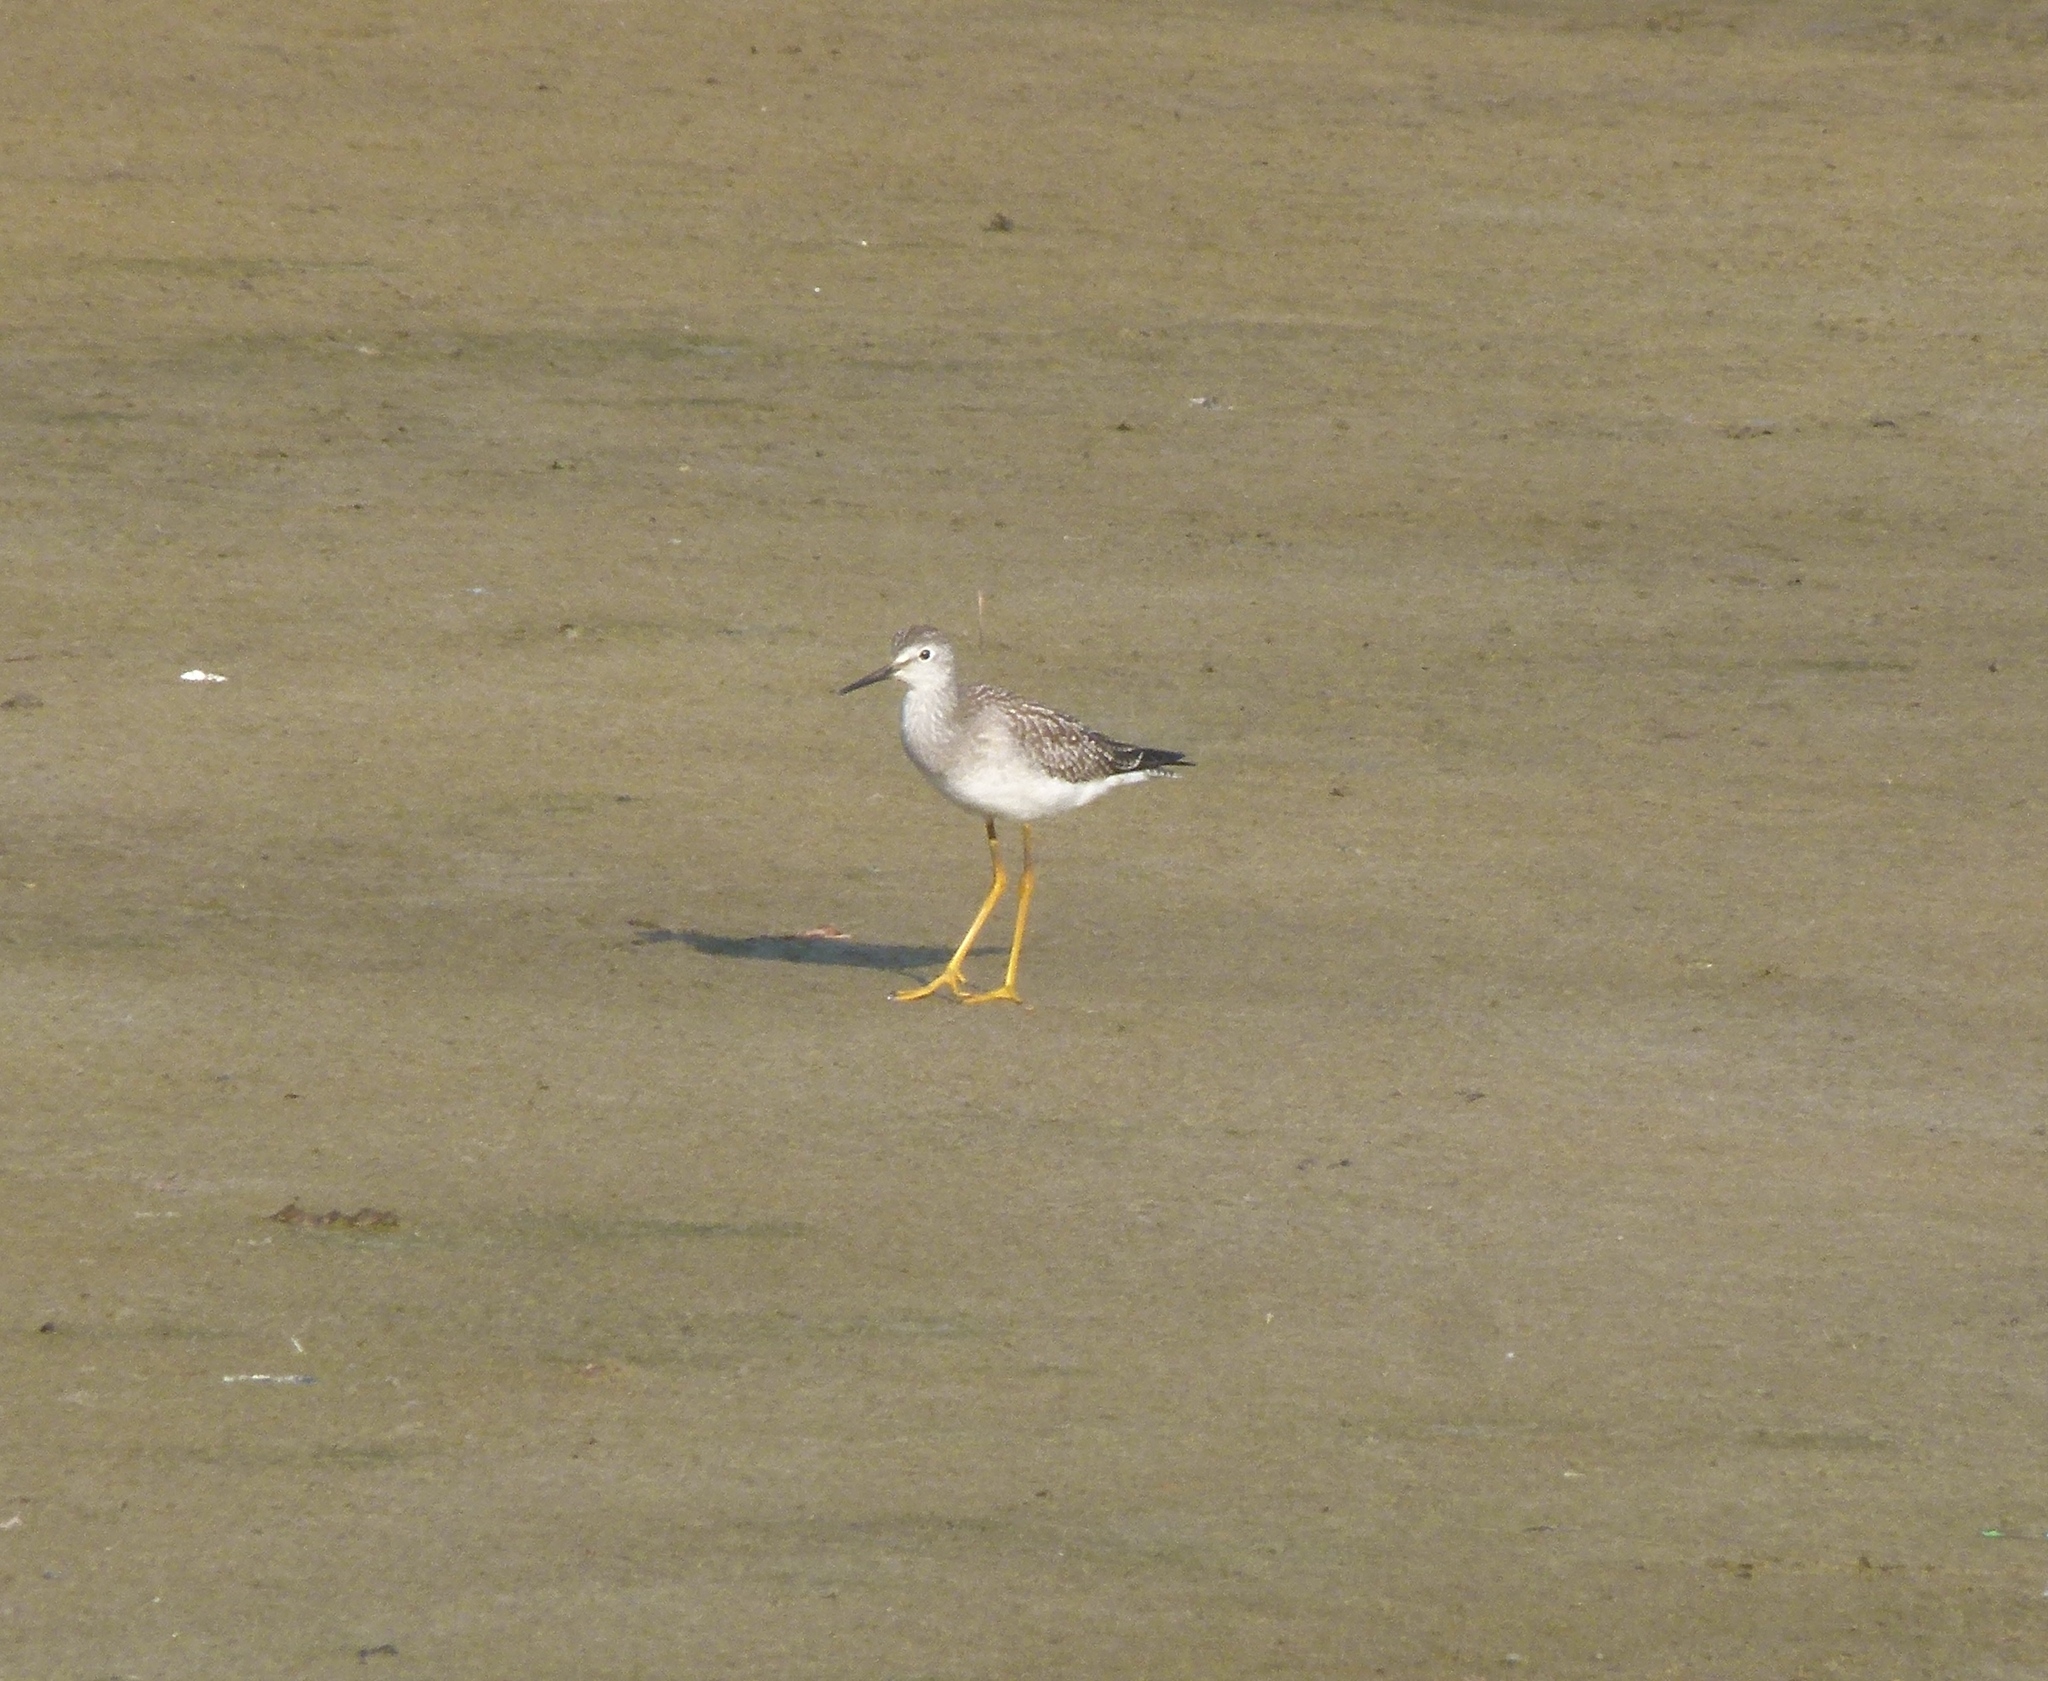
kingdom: Animalia
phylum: Chordata
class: Aves
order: Charadriiformes
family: Scolopacidae
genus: Tringa
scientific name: Tringa flavipes
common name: Lesser yellowlegs
